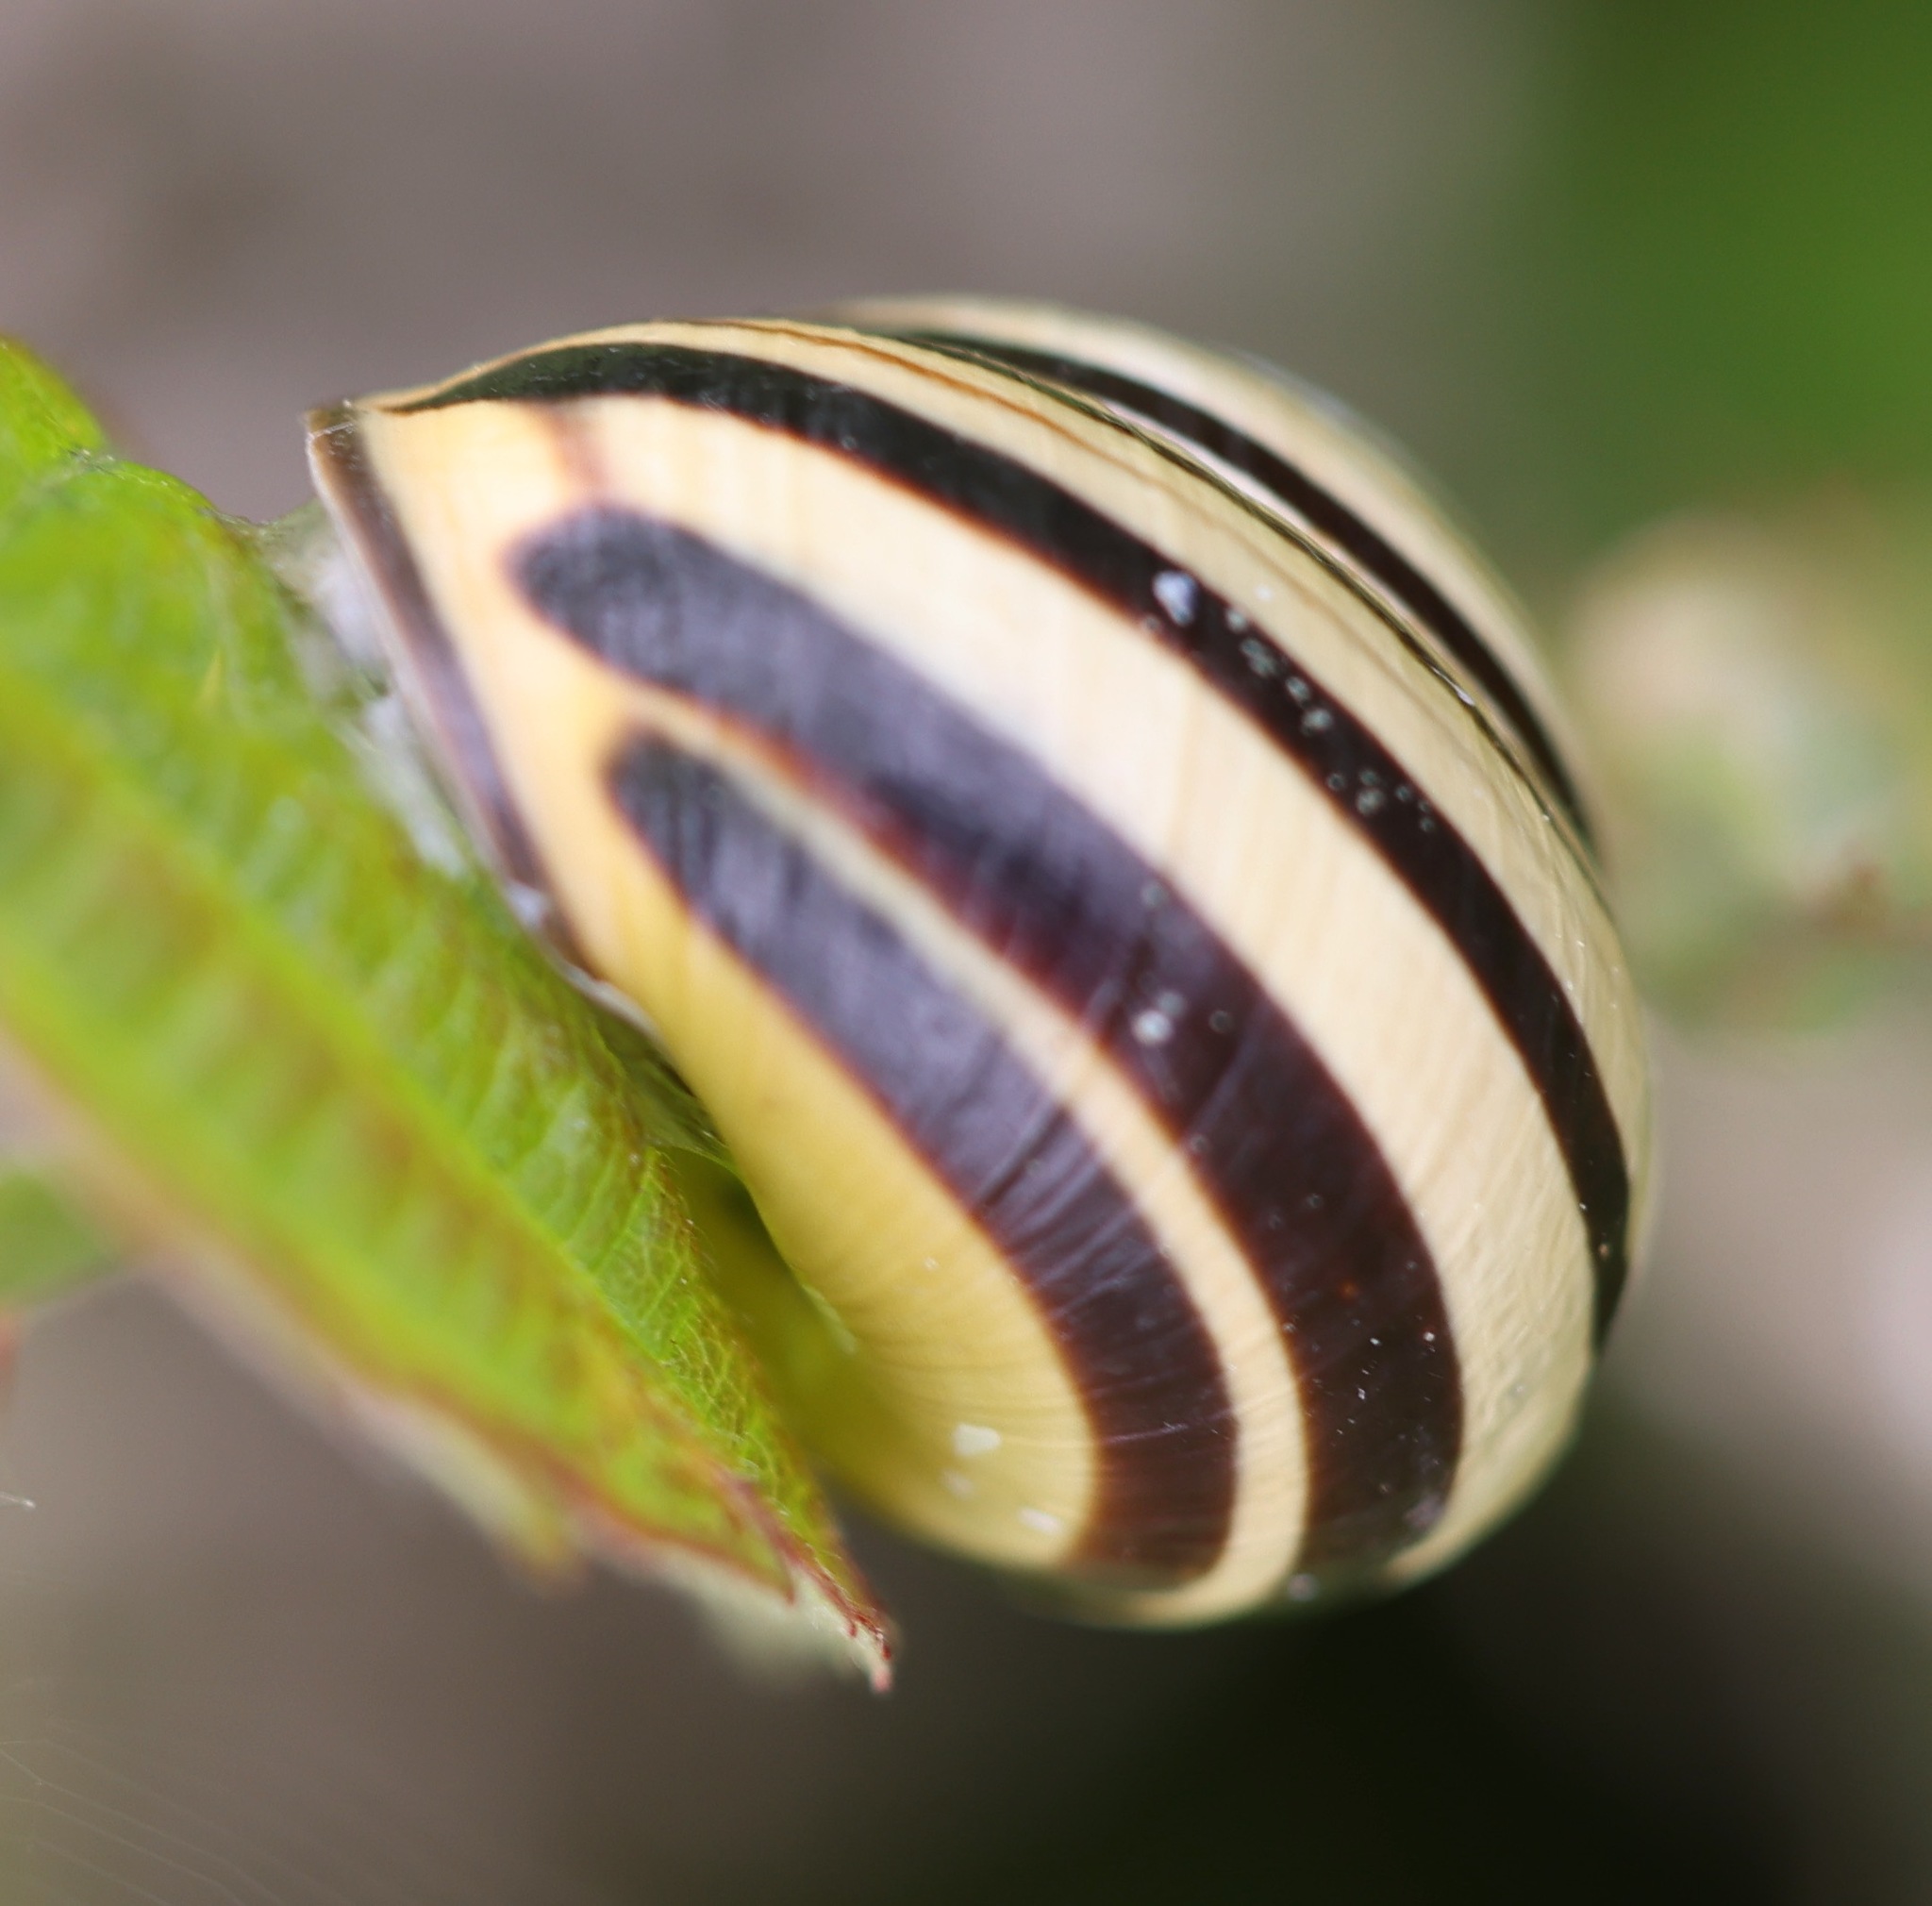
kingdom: Animalia
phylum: Mollusca
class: Gastropoda
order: Stylommatophora
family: Helicidae
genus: Cepaea
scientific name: Cepaea nemoralis
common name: Grovesnail
